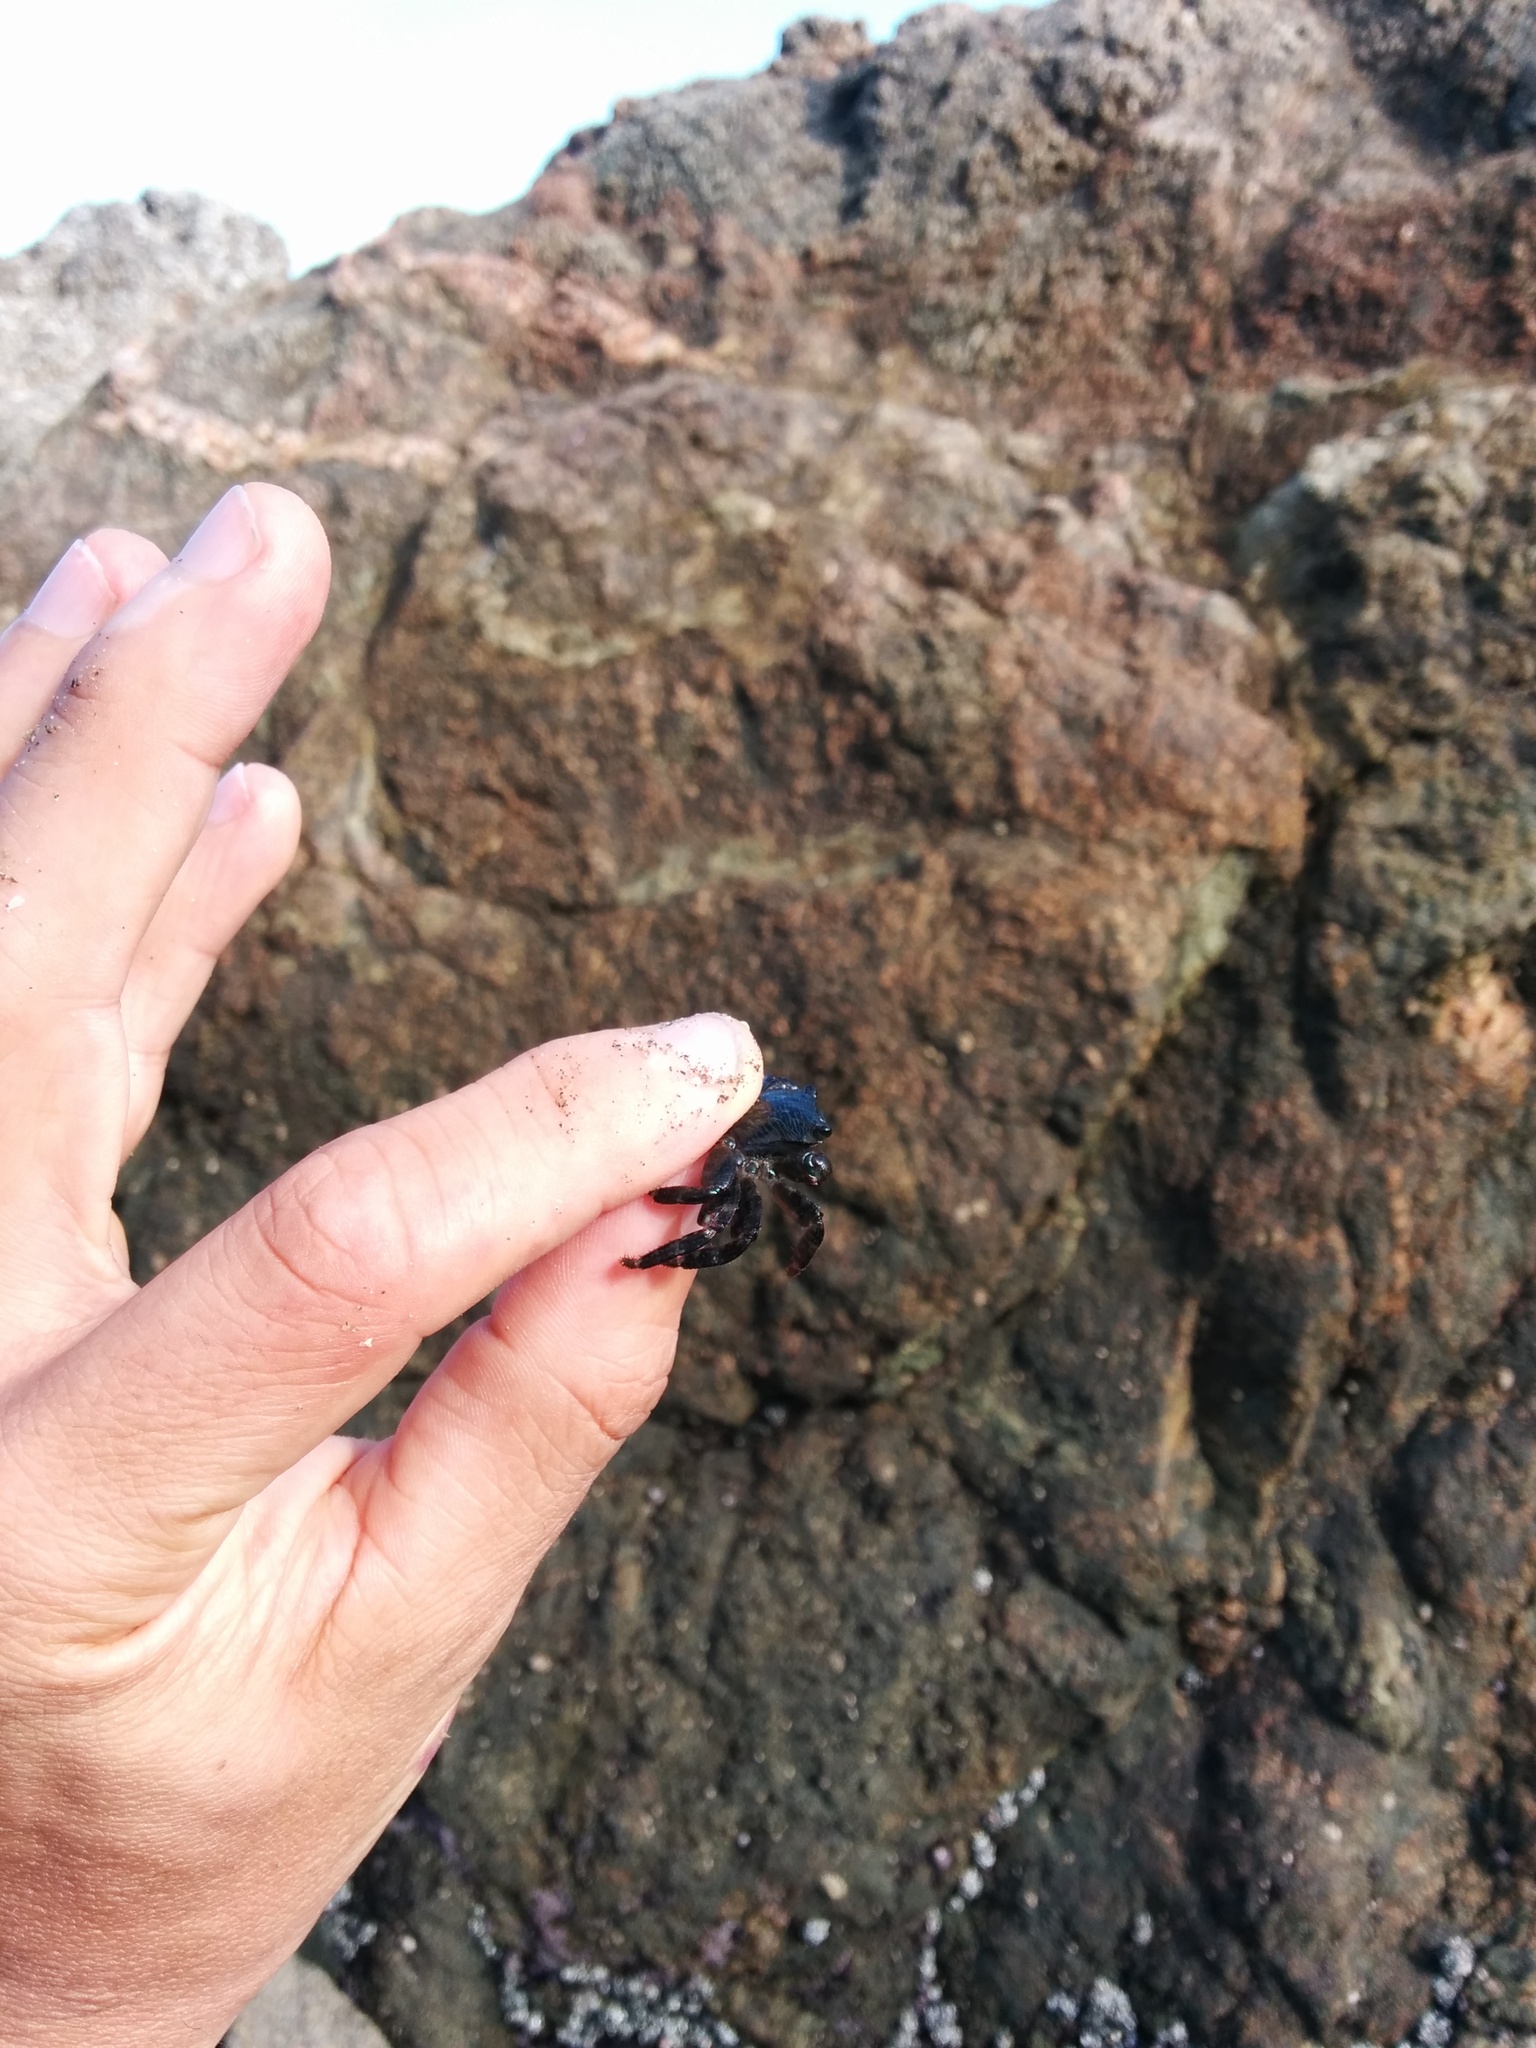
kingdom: Animalia
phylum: Arthropoda
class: Malacostraca
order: Decapoda
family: Grapsidae
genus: Pachygrapsus
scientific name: Pachygrapsus crassipes
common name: Striped shore crab
